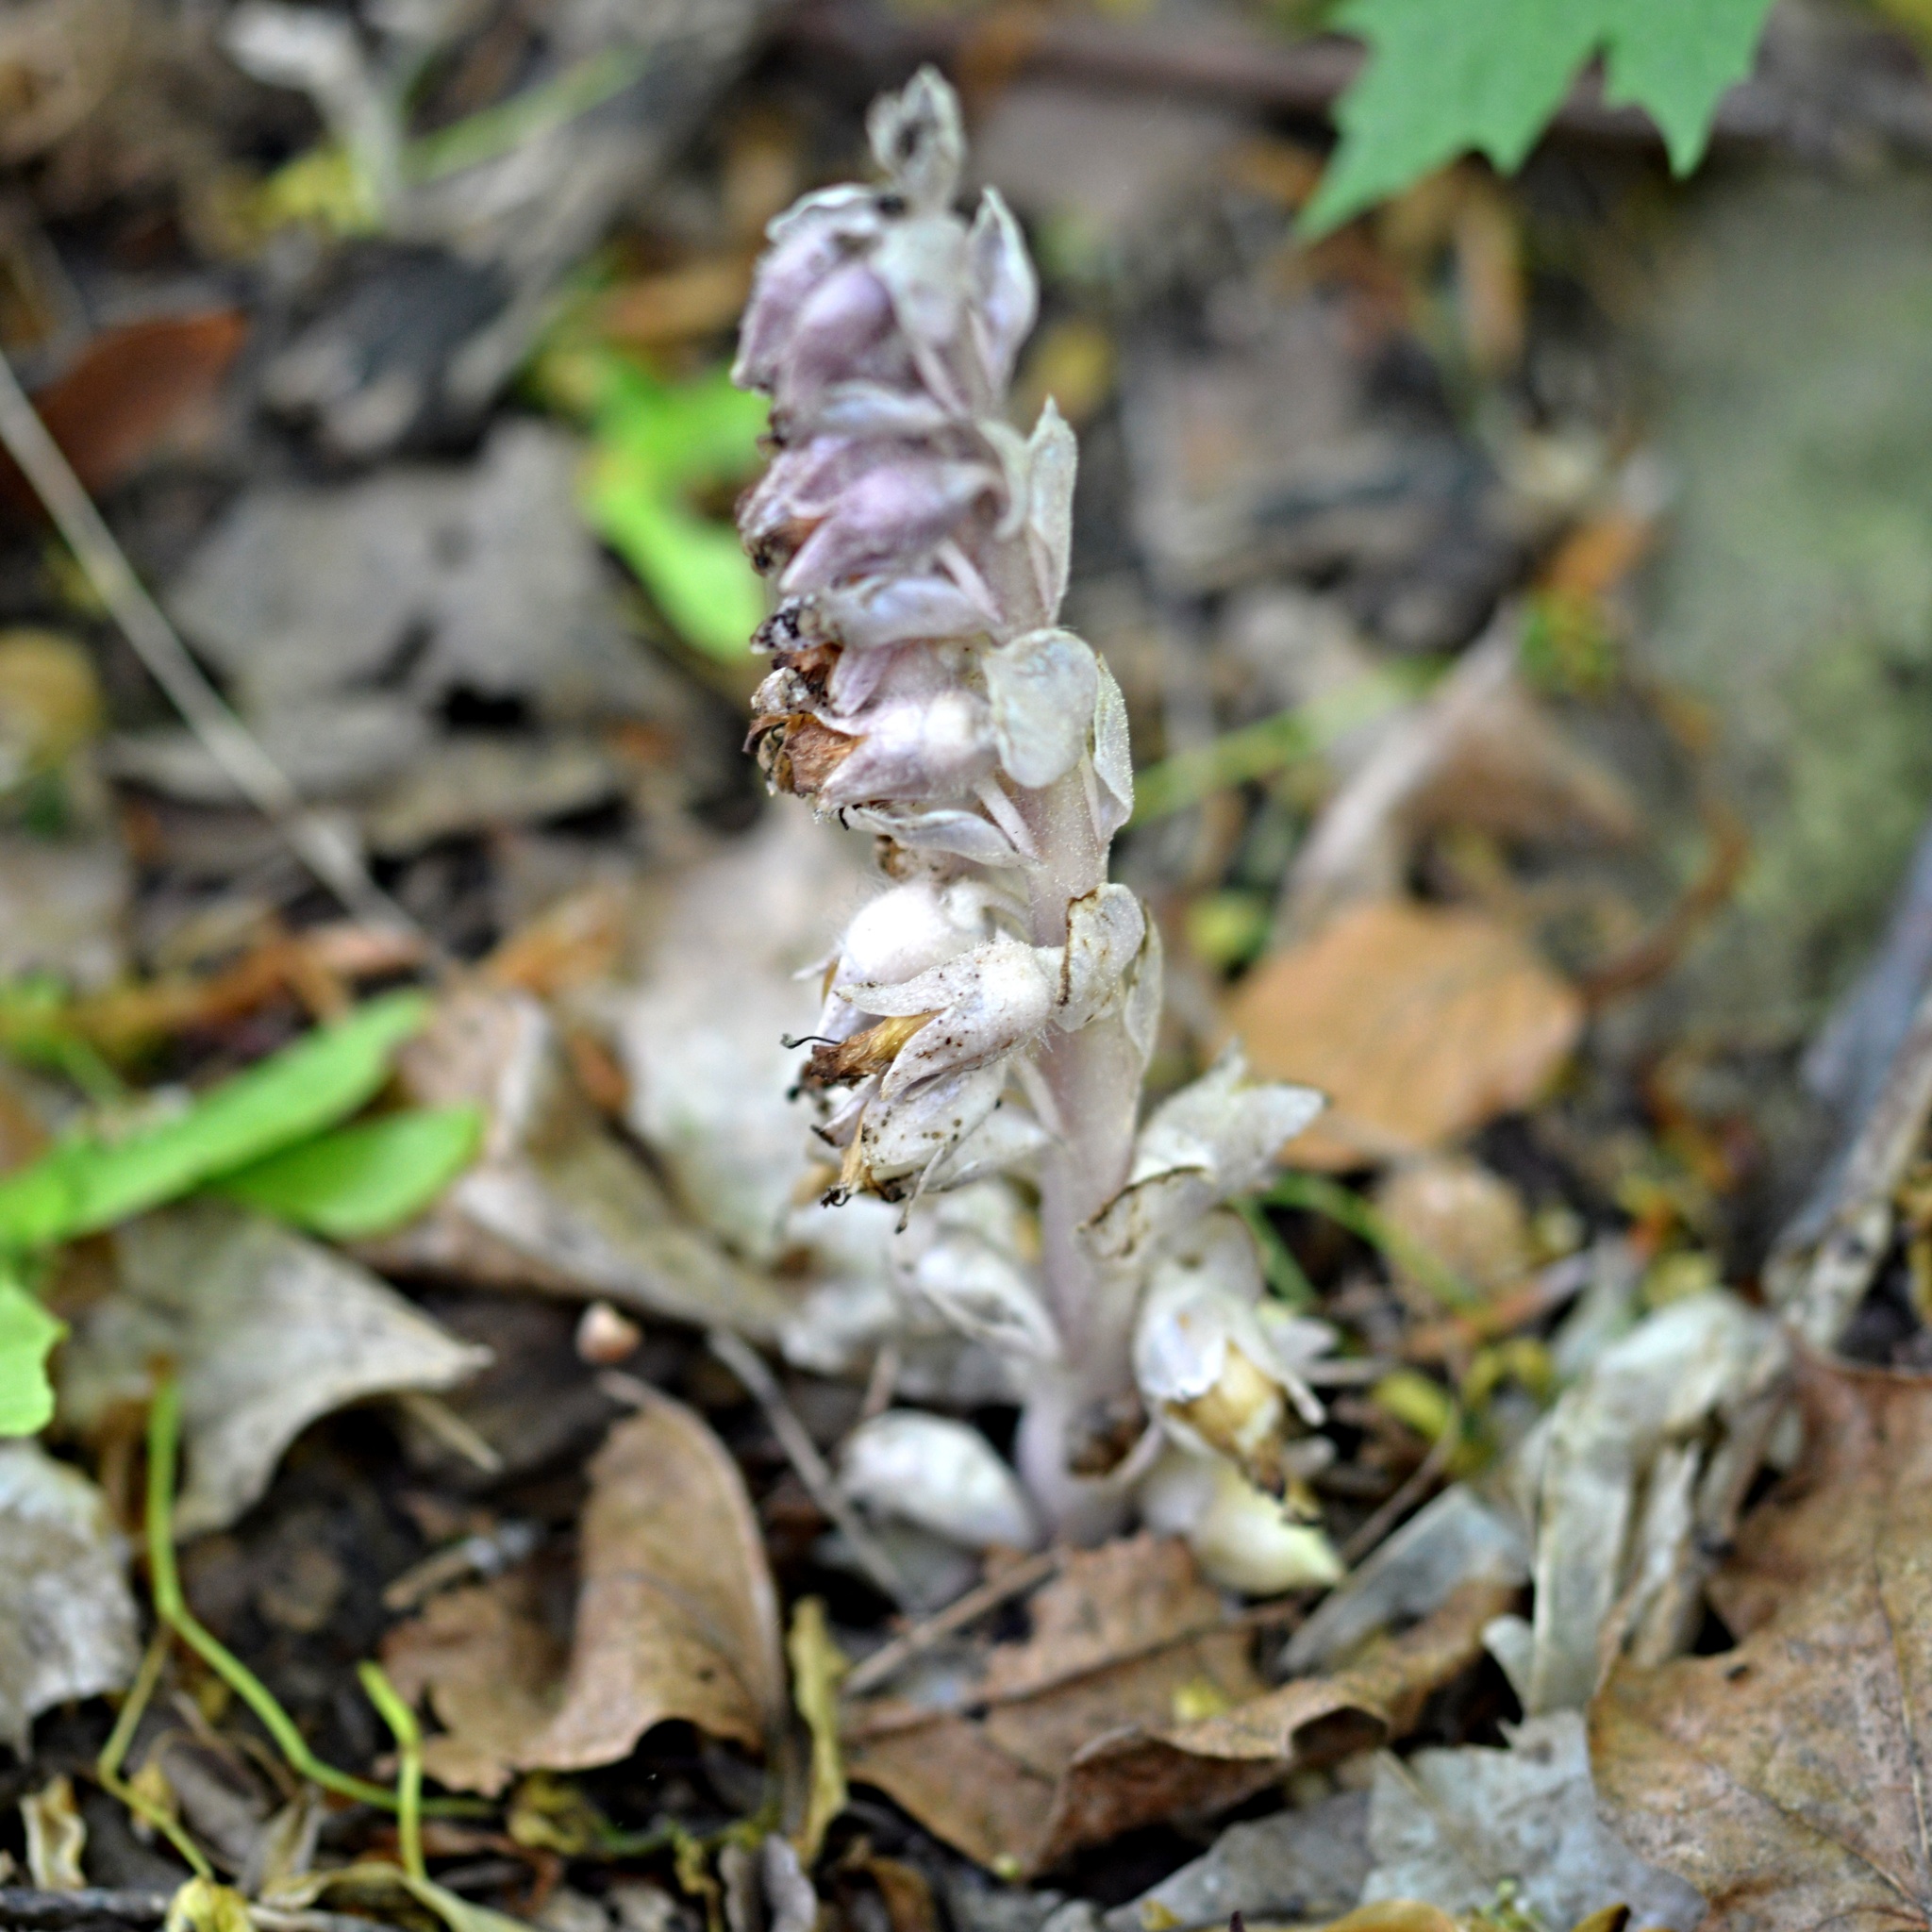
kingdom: Plantae
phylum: Tracheophyta
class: Magnoliopsida
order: Lamiales
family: Orobanchaceae
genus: Lathraea
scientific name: Lathraea squamaria
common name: Toothwort
